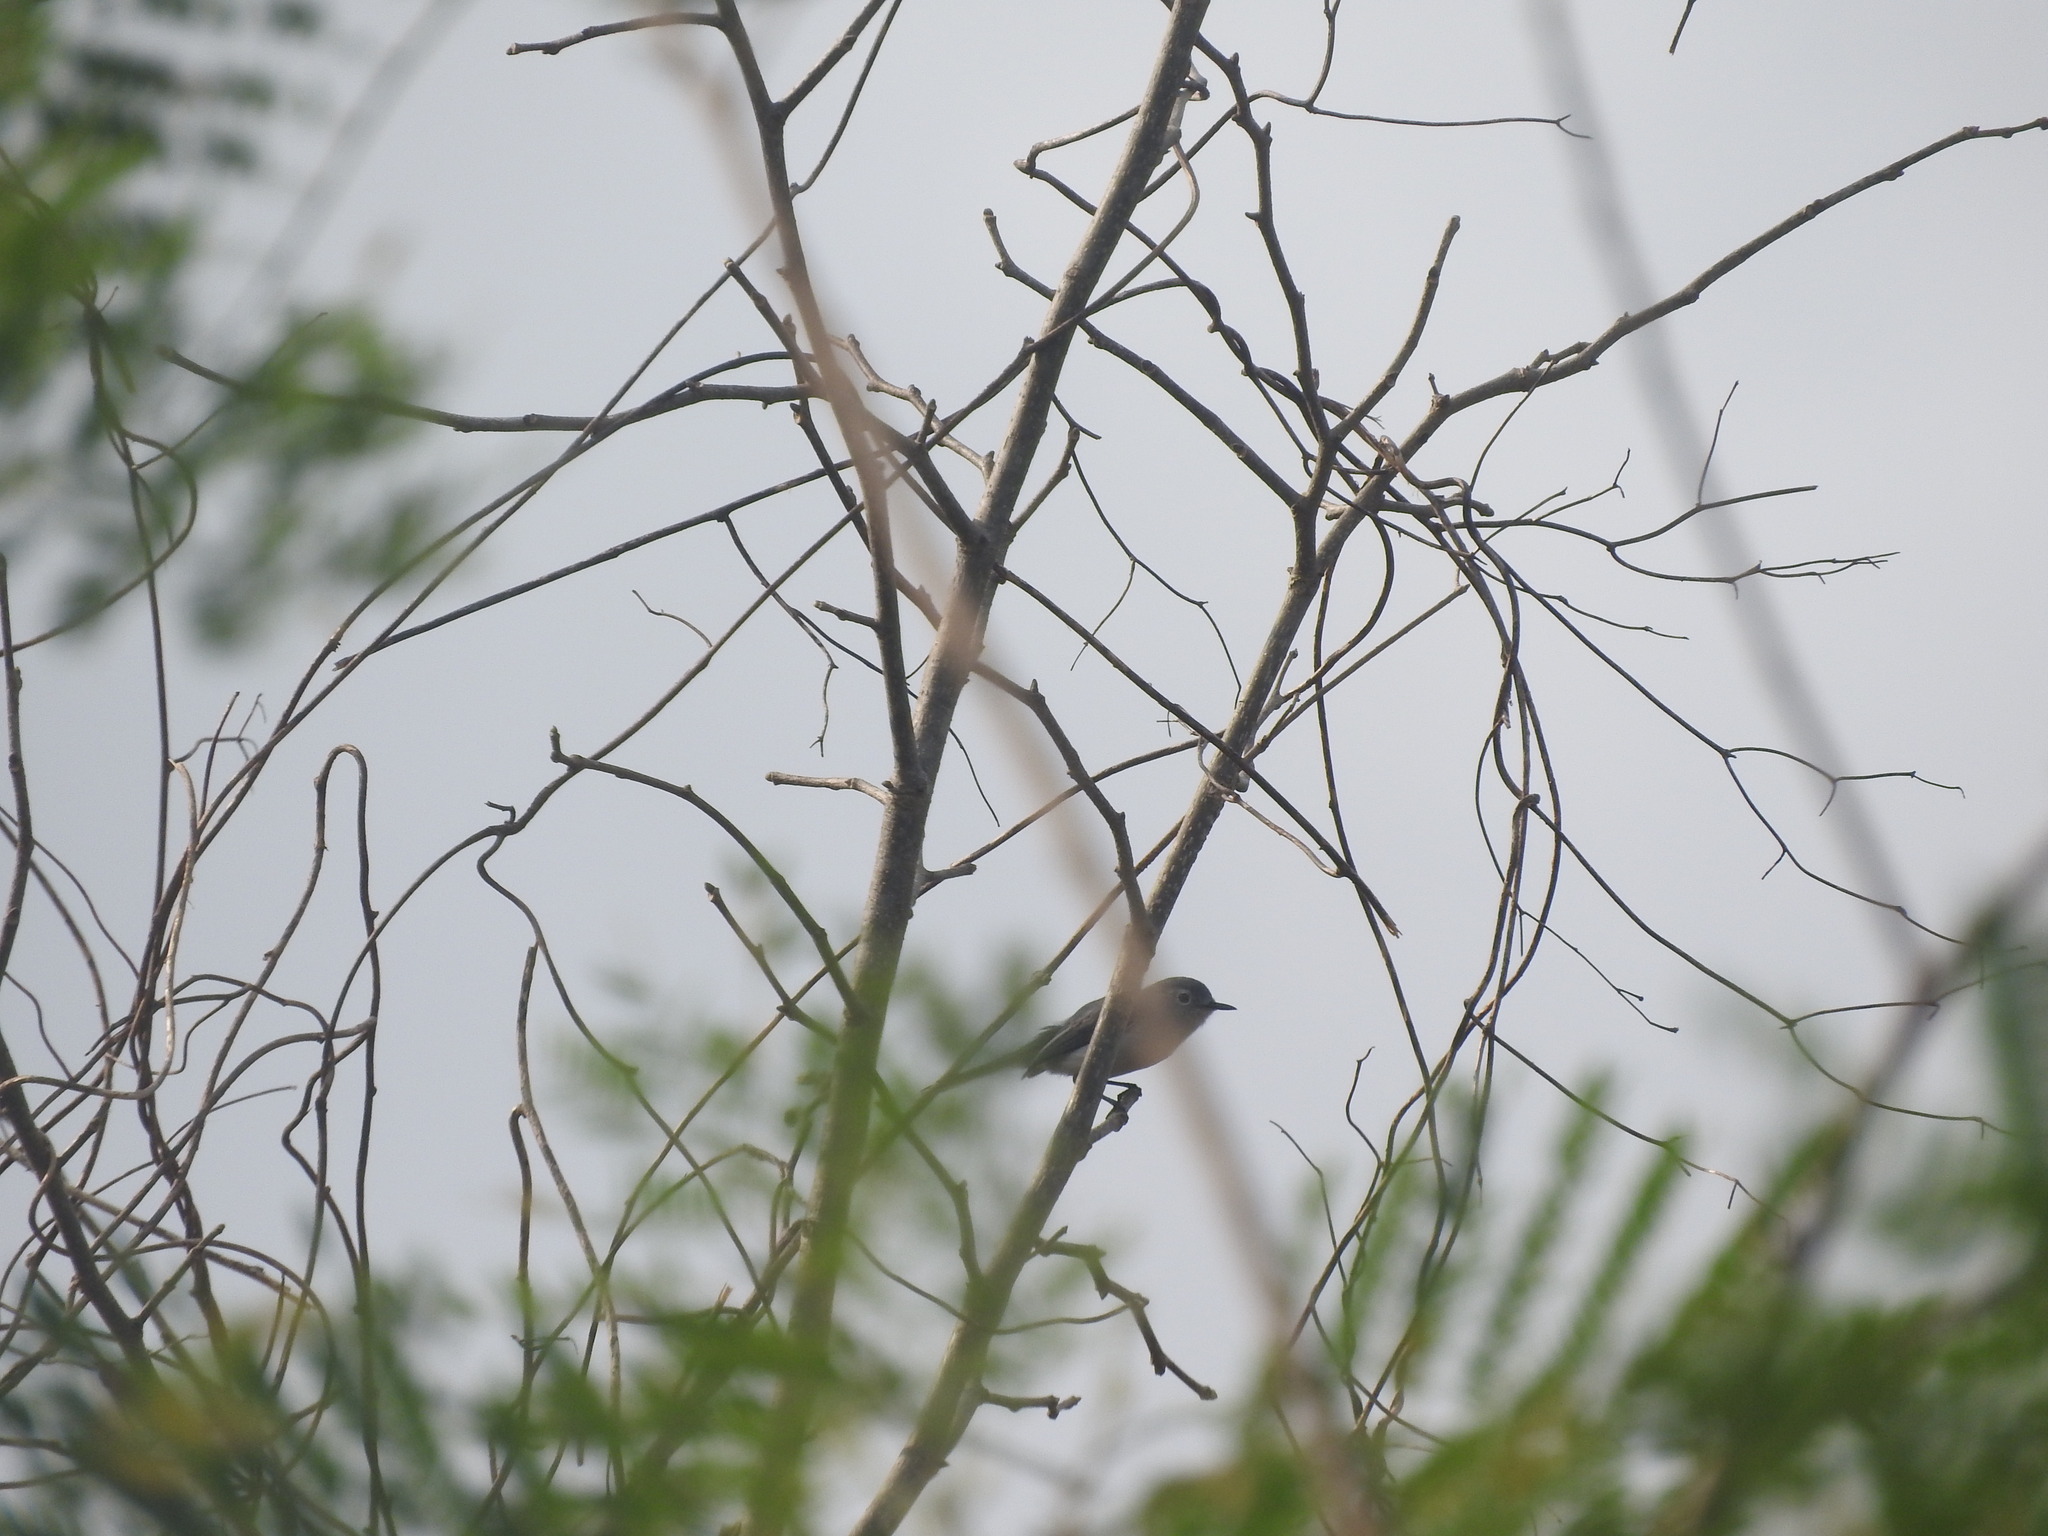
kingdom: Animalia
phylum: Chordata
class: Aves
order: Passeriformes
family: Polioptilidae
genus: Polioptila
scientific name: Polioptila caerulea
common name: Blue-gray gnatcatcher
